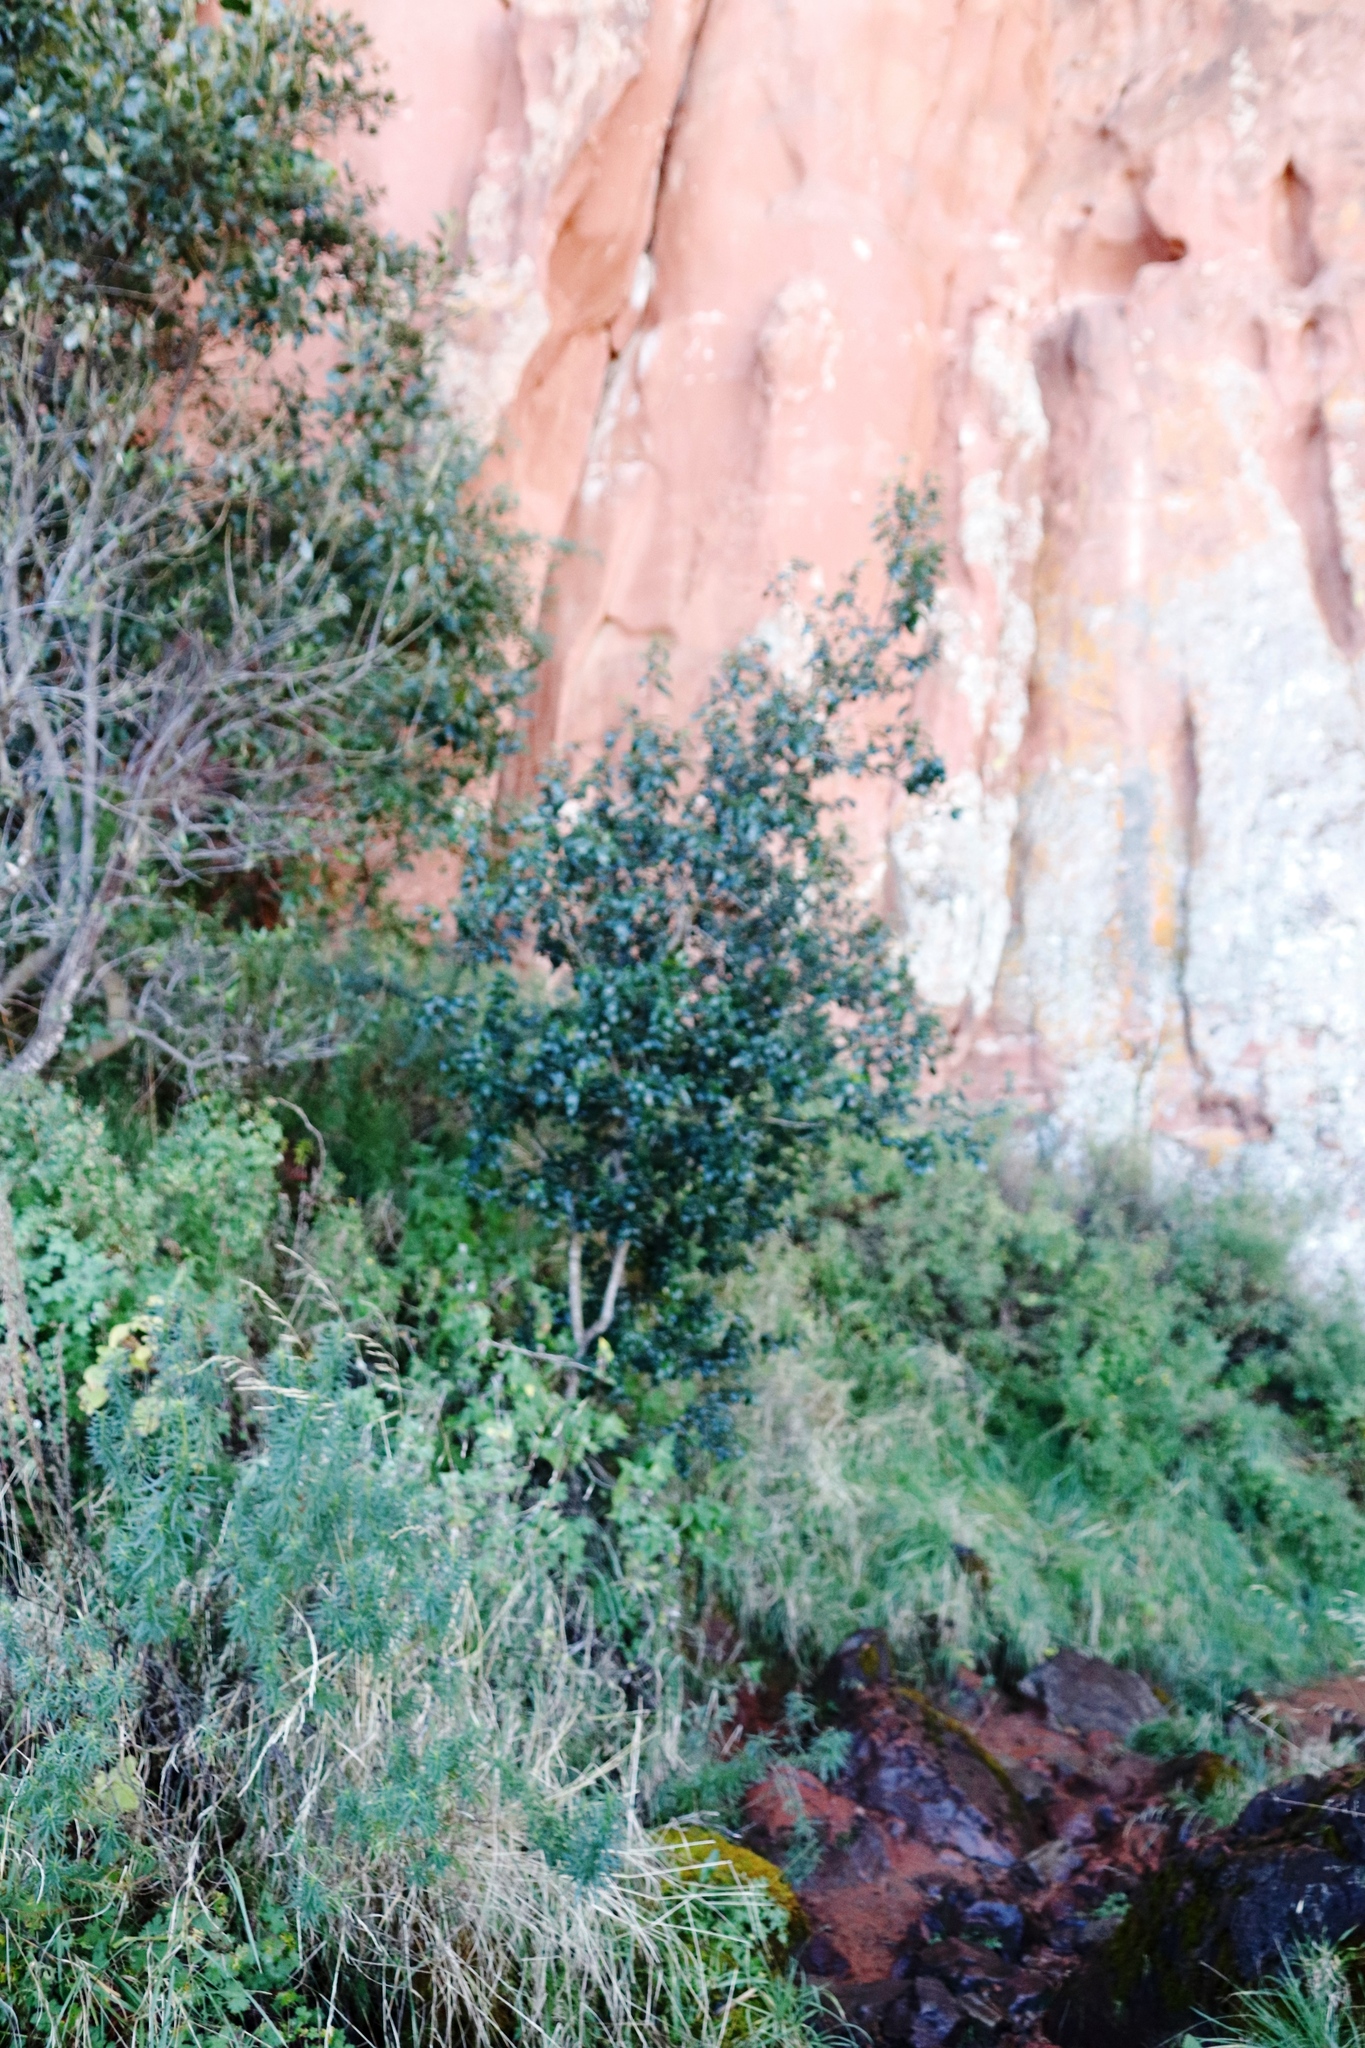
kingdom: Plantae
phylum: Tracheophyta
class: Magnoliopsida
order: Malpighiales
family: Achariaceae
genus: Kiggelaria
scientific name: Kiggelaria africana
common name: Wild peach
